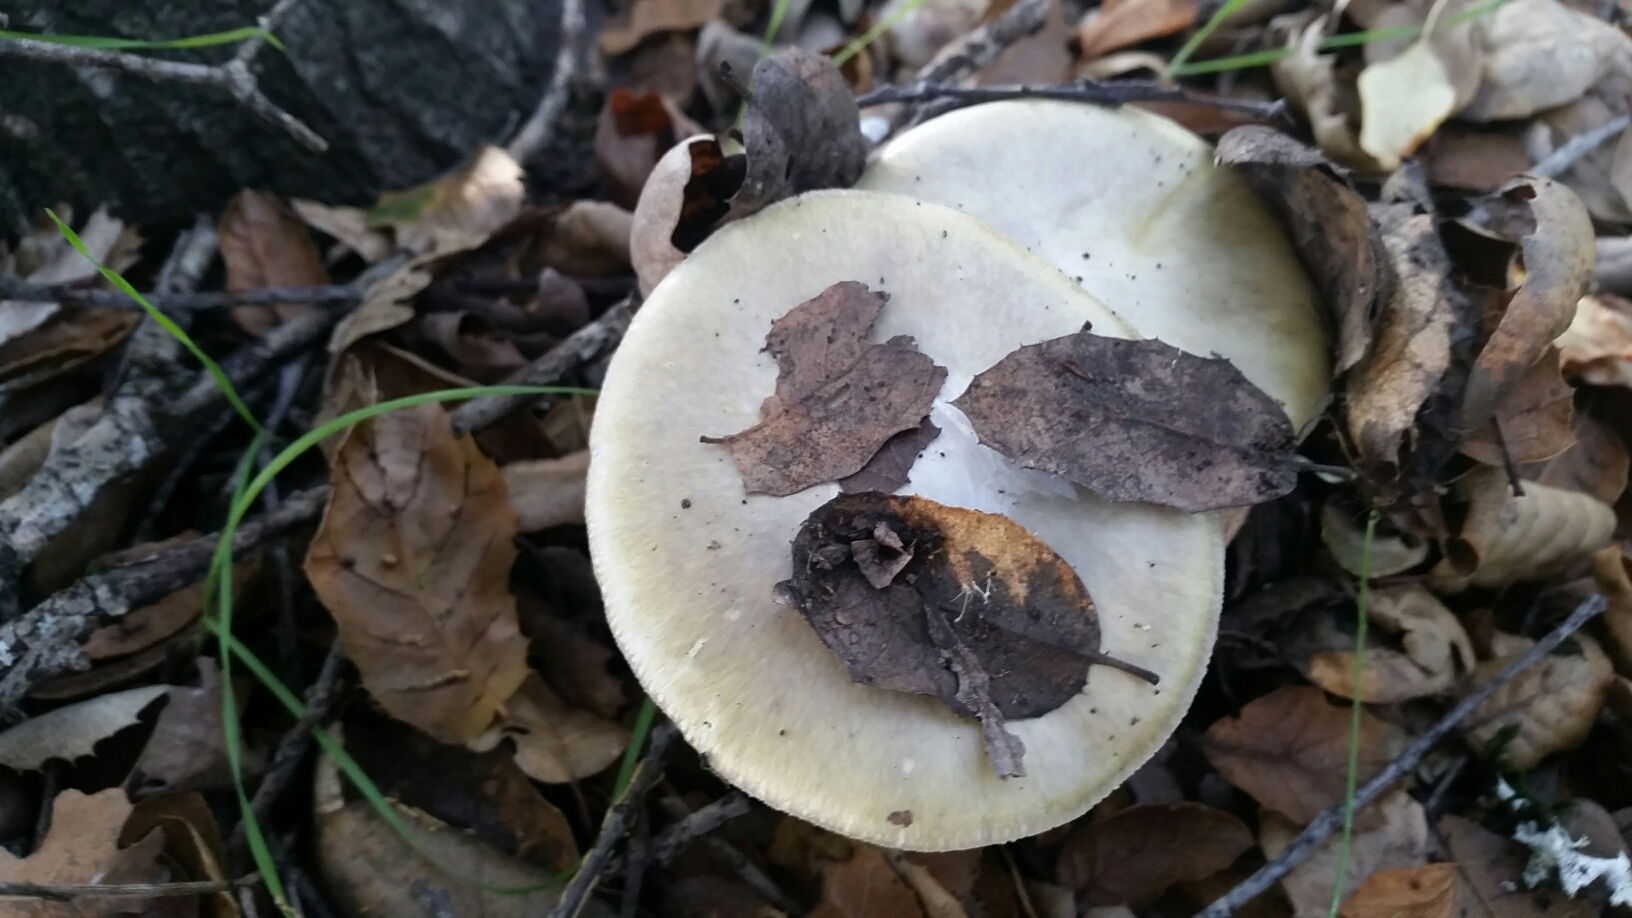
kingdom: Fungi
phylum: Basidiomycota
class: Agaricomycetes
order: Agaricales
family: Amanitaceae
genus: Amanita
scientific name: Amanita phalloides
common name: Death cap
